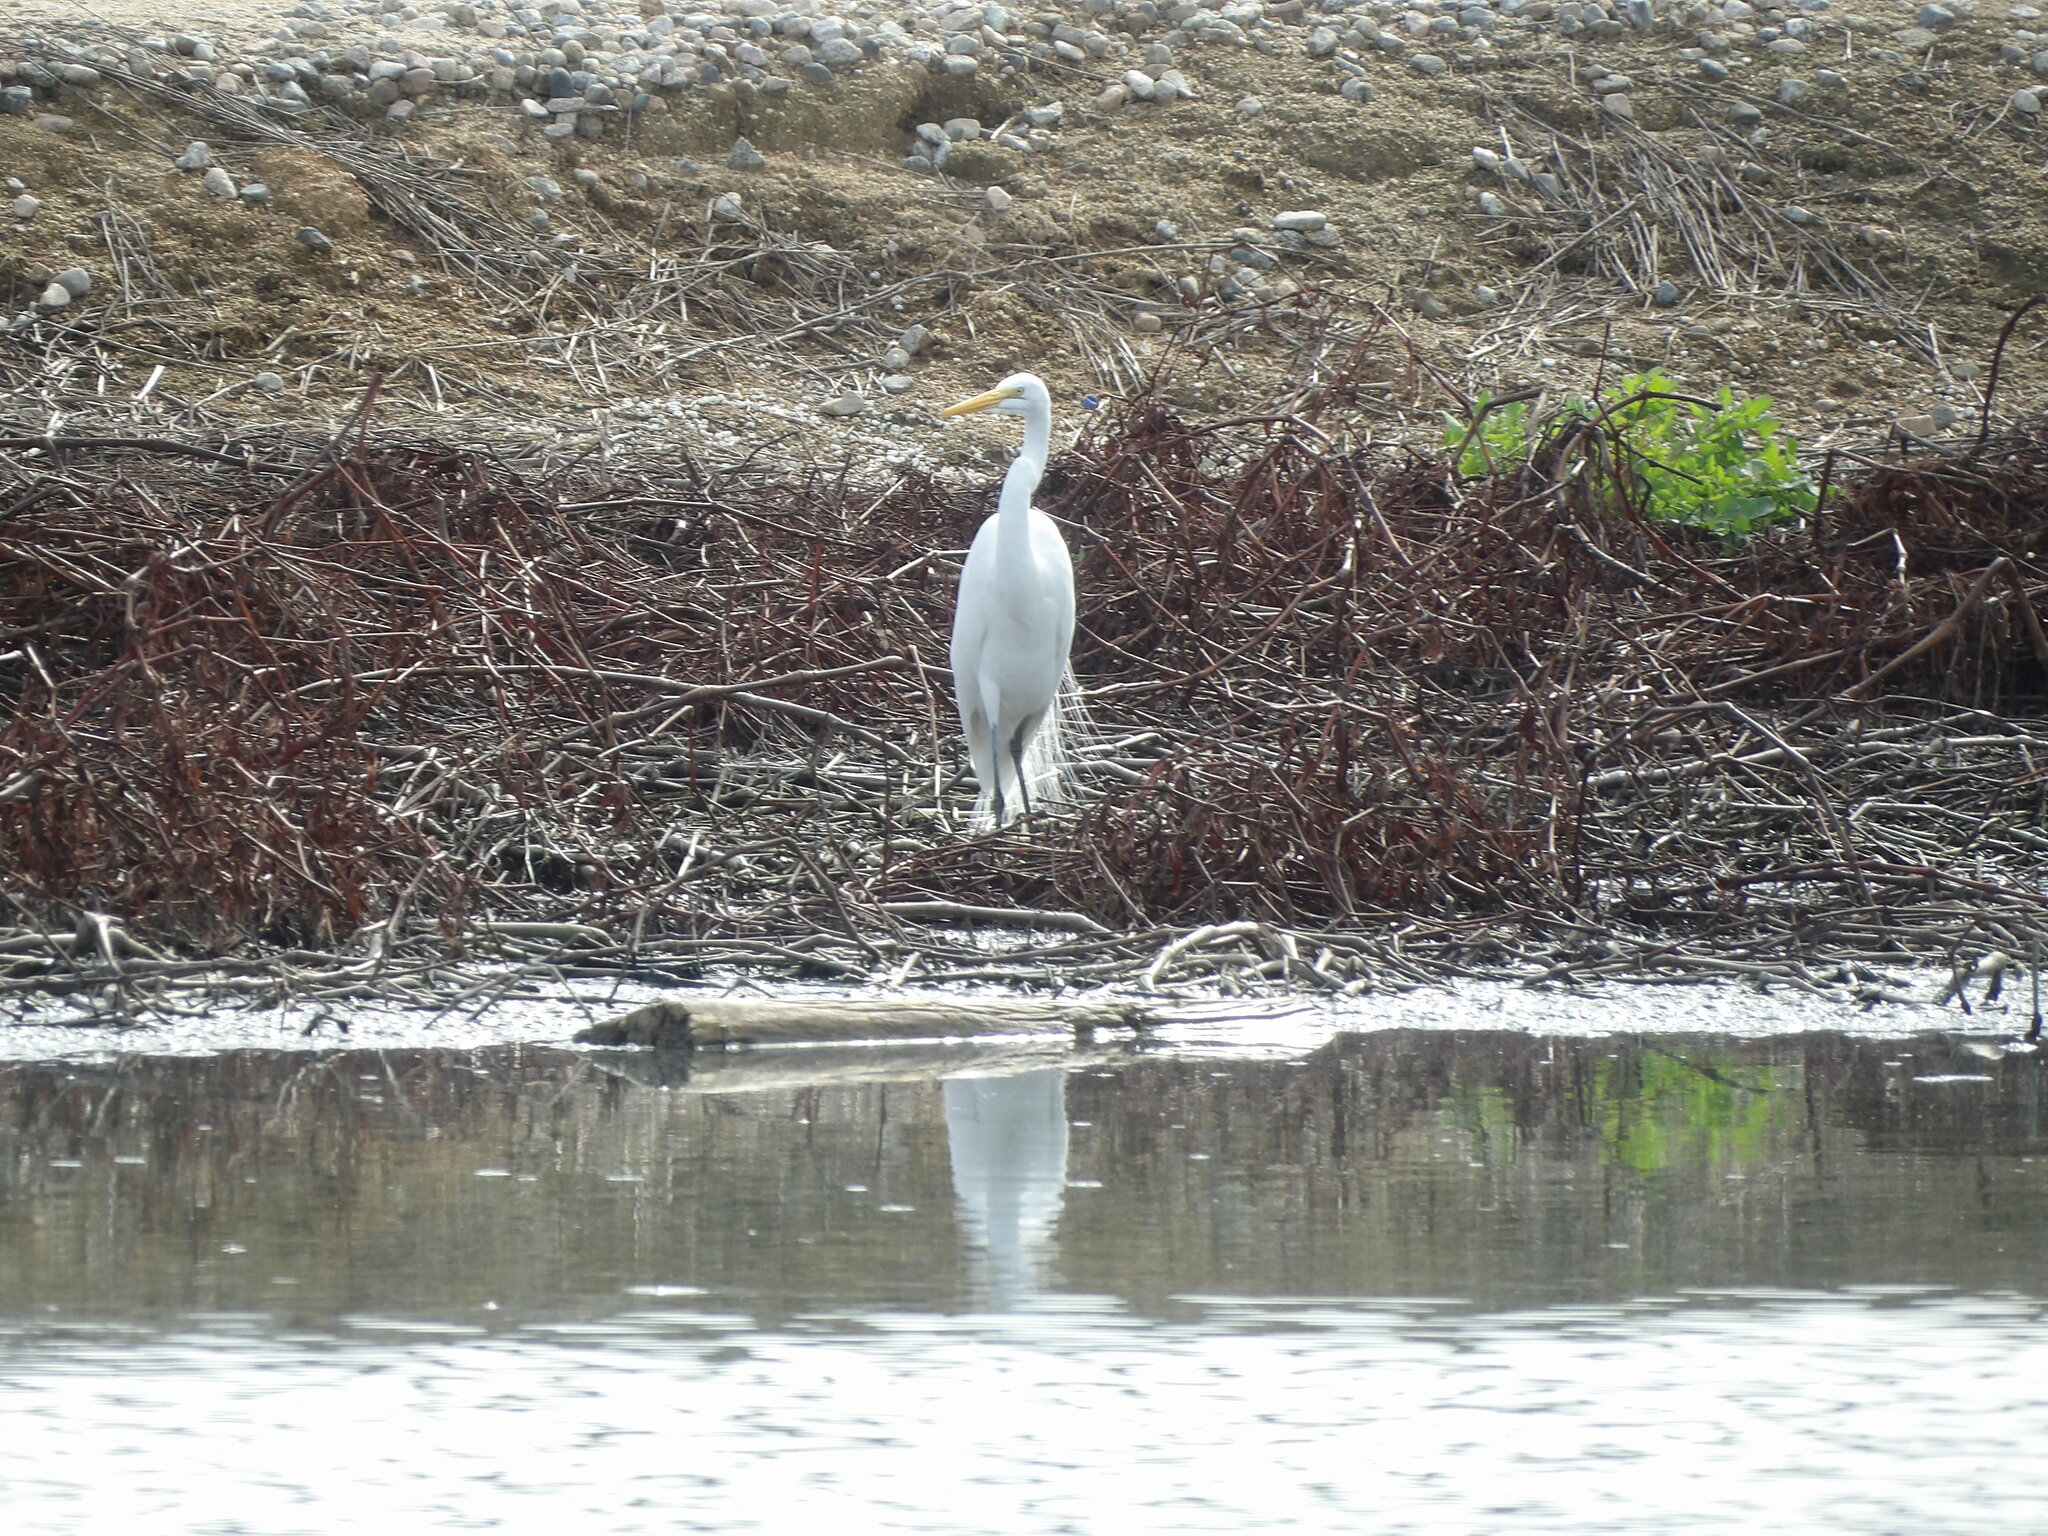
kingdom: Animalia
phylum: Chordata
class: Aves
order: Pelecaniformes
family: Ardeidae
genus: Ardea
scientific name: Ardea alba
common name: Great egret
